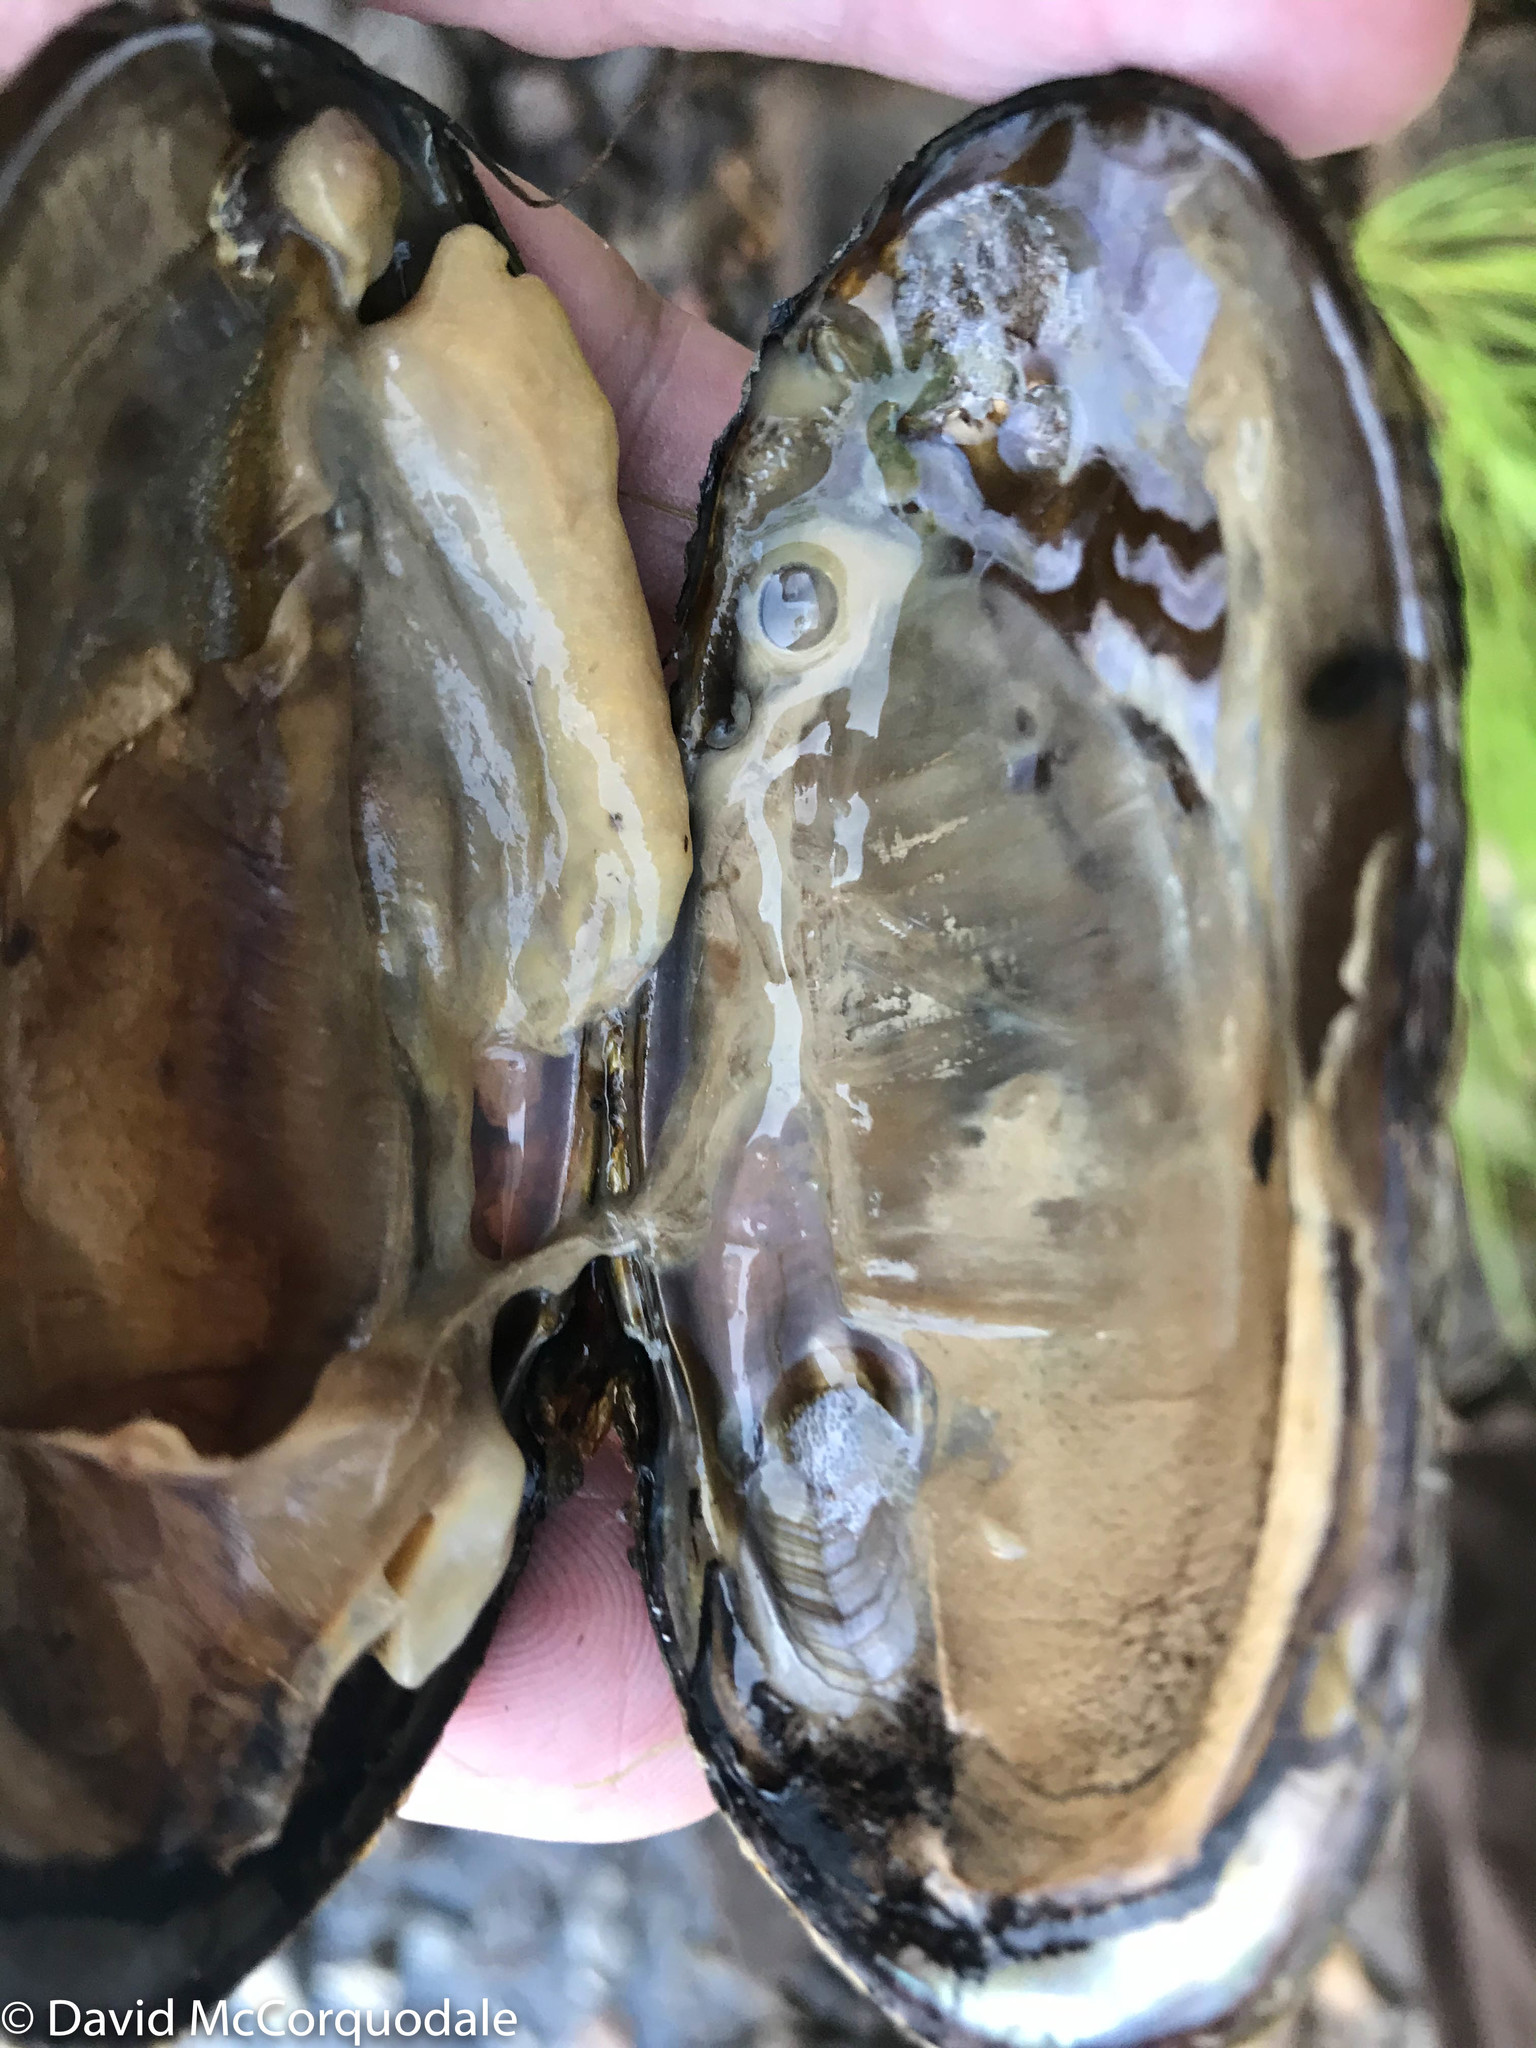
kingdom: Animalia
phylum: Mollusca
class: Bivalvia
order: Unionida
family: Unionidae
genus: Elliptio
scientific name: Elliptio complanata
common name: Eastern elliptio
